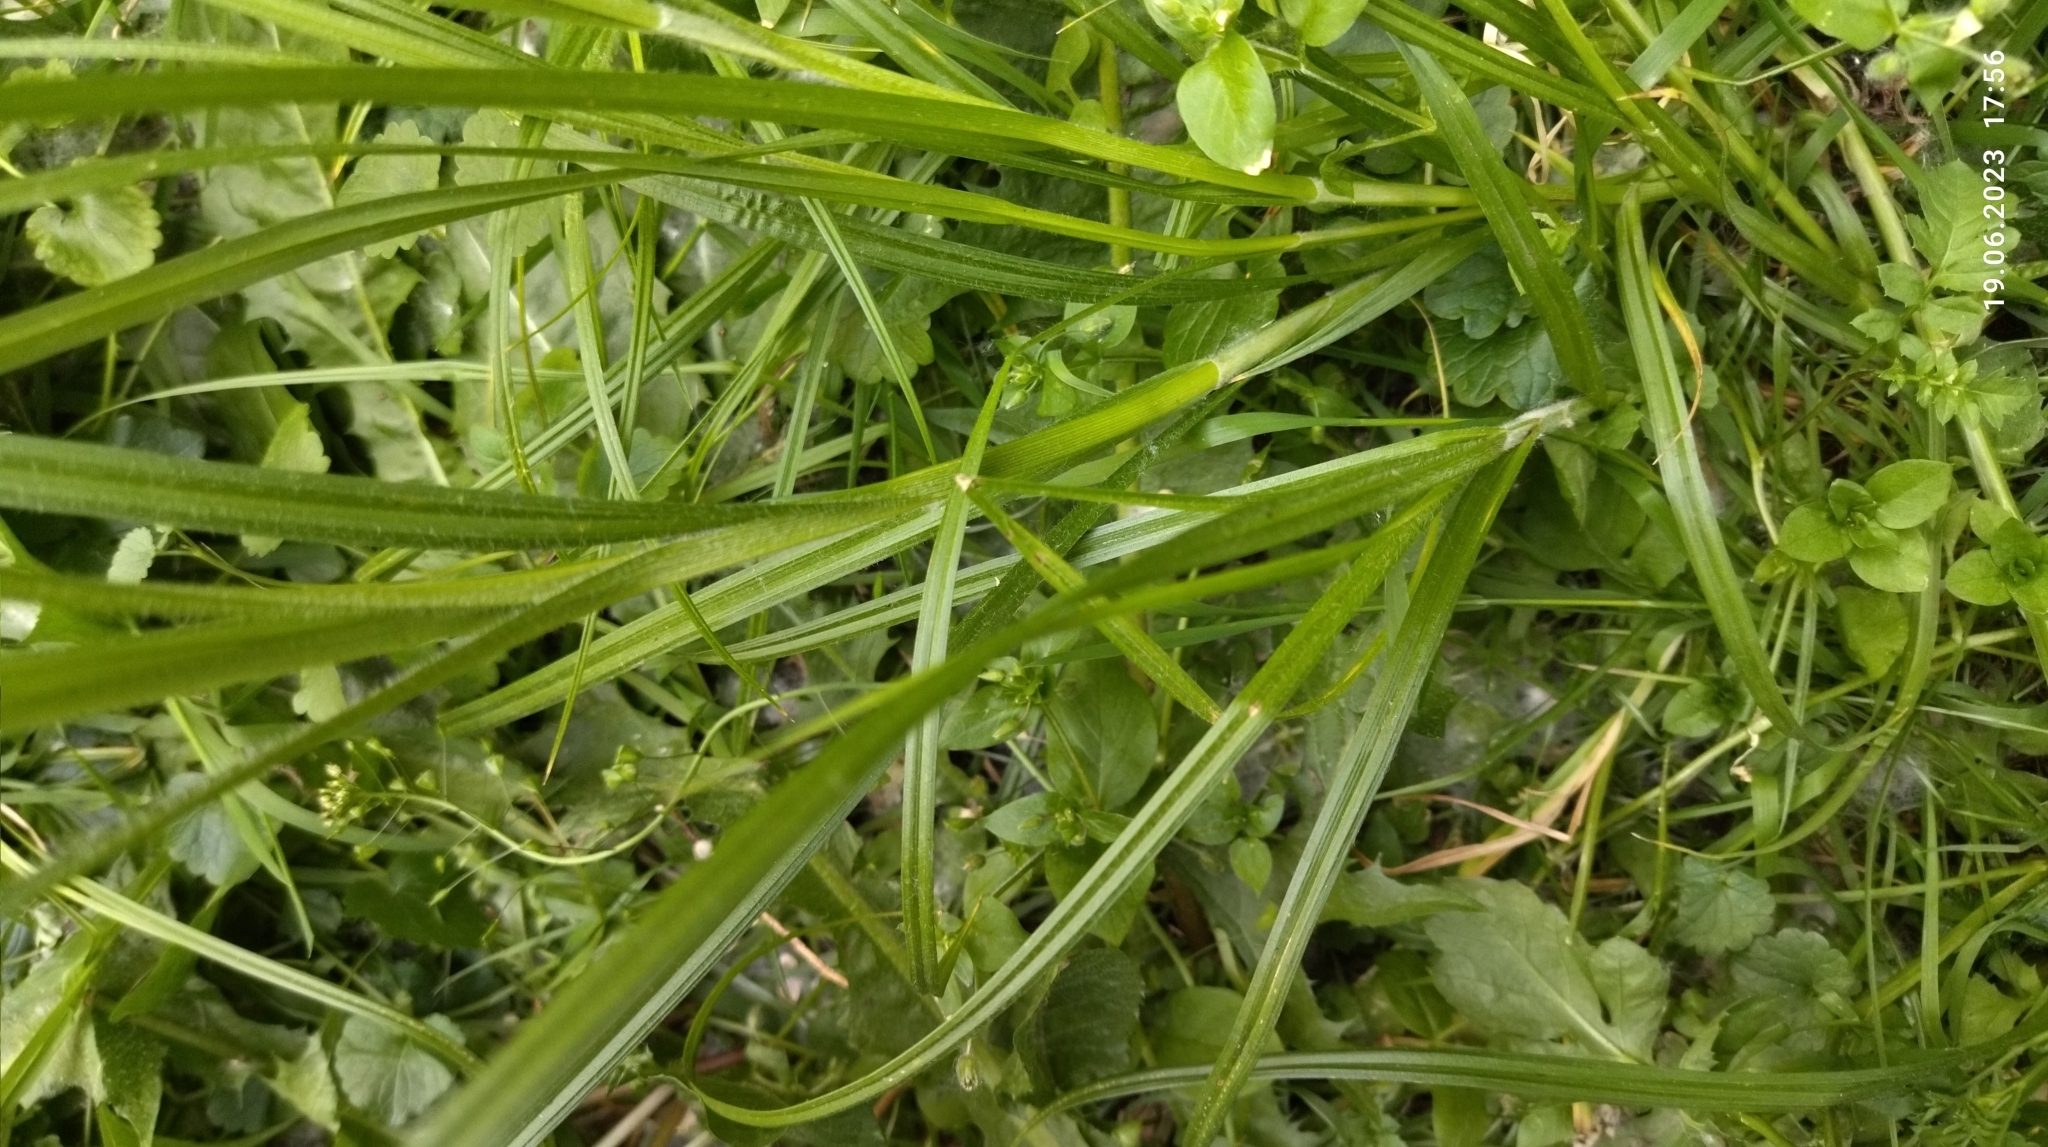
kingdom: Plantae
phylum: Tracheophyta
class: Liliopsida
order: Poales
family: Cyperaceae
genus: Carex
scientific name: Carex hirta
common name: Hairy sedge
